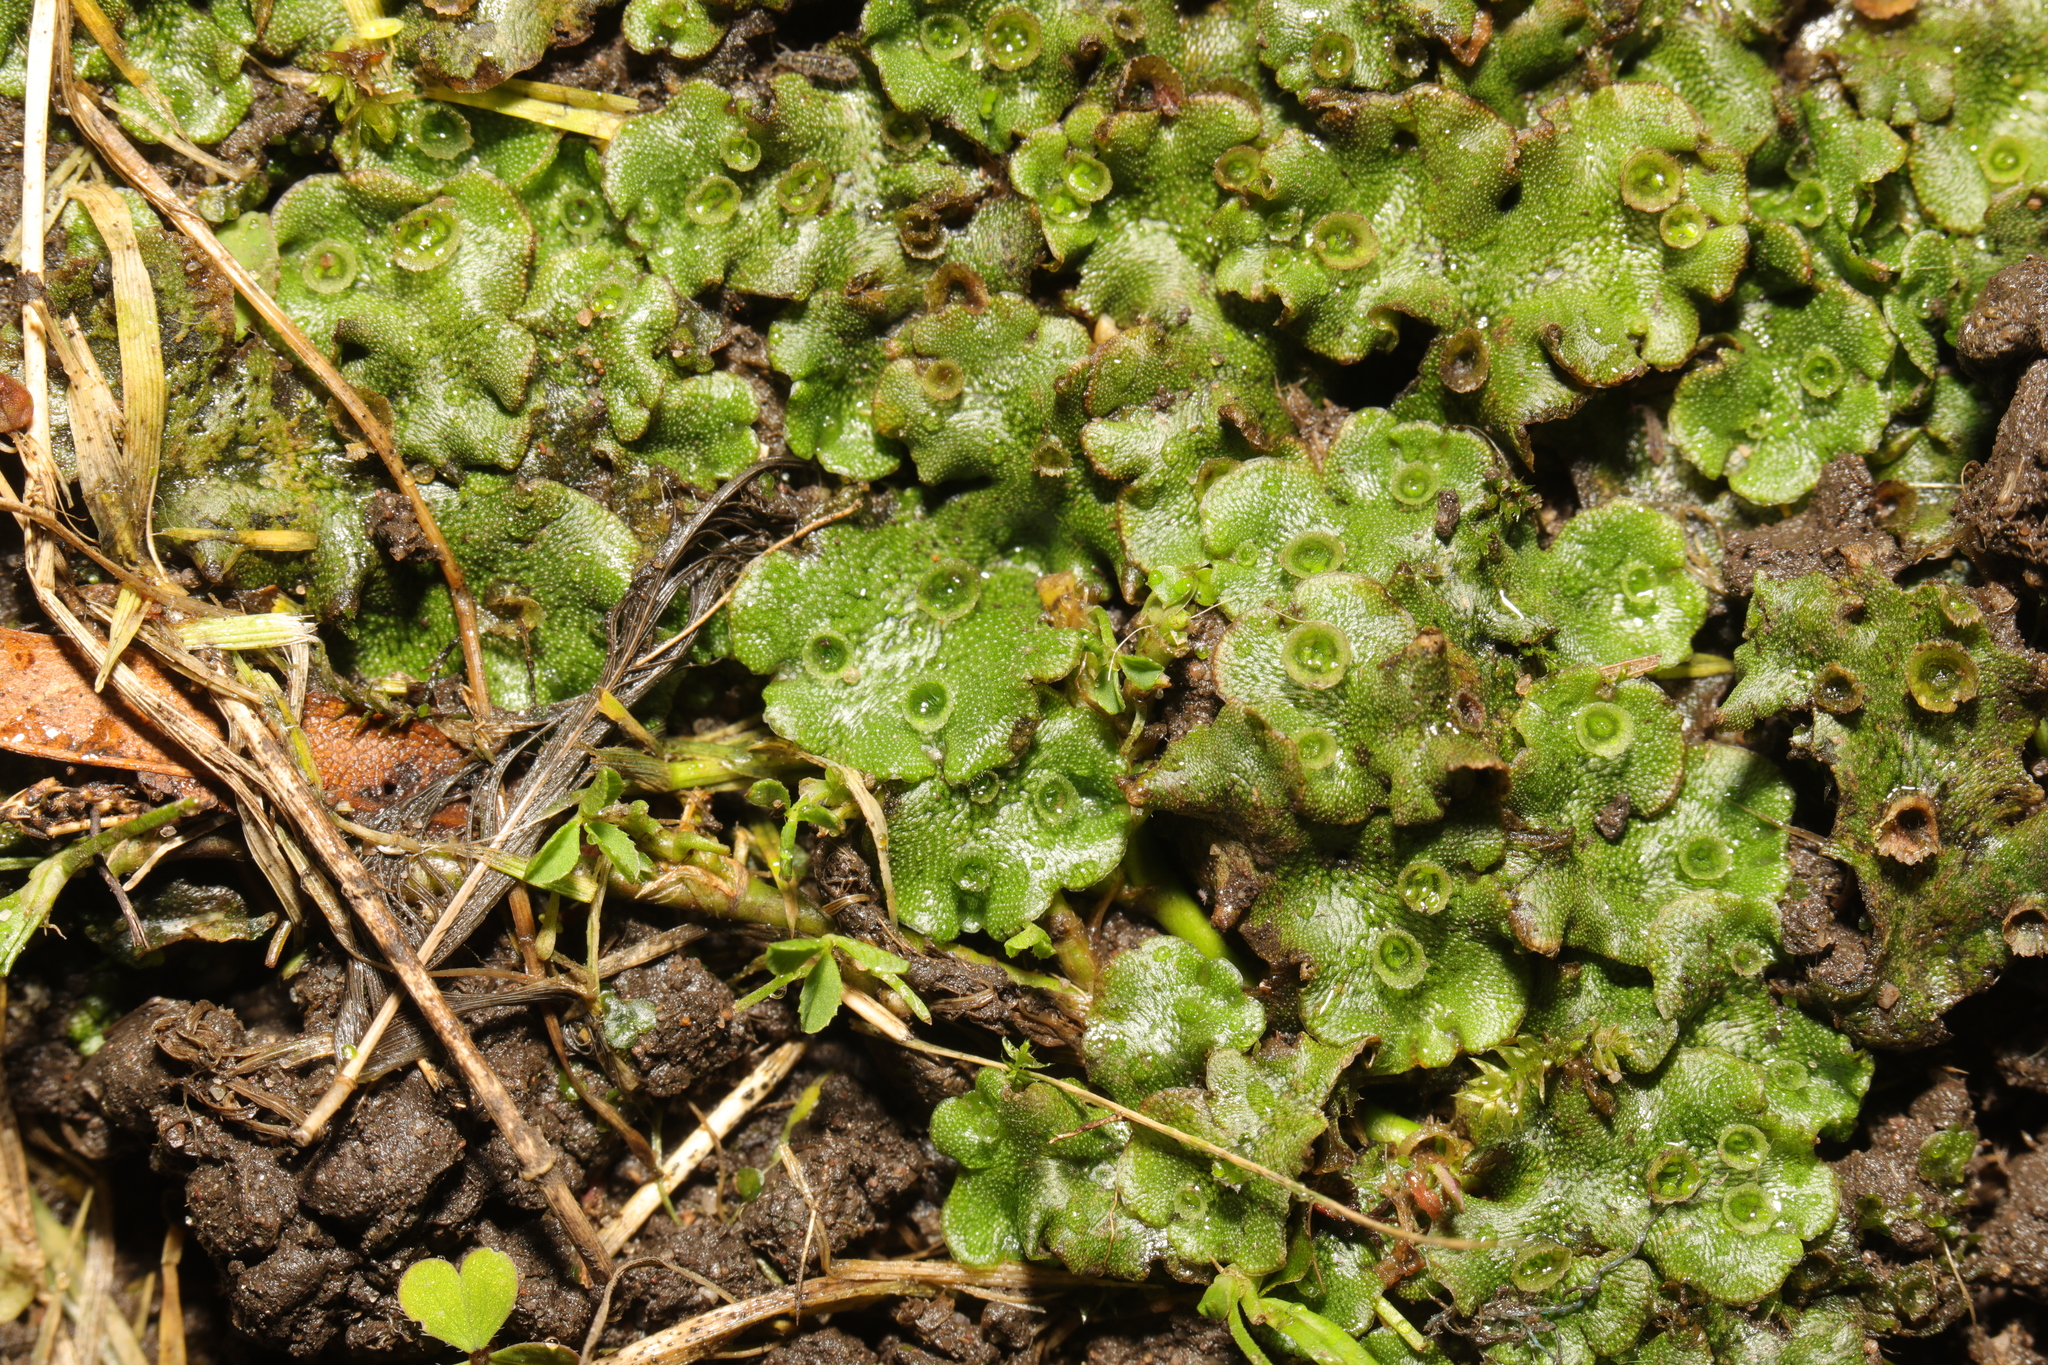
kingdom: Plantae
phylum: Marchantiophyta
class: Marchantiopsida
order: Marchantiales
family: Marchantiaceae
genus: Marchantia
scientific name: Marchantia polymorpha
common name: Common liverwort
